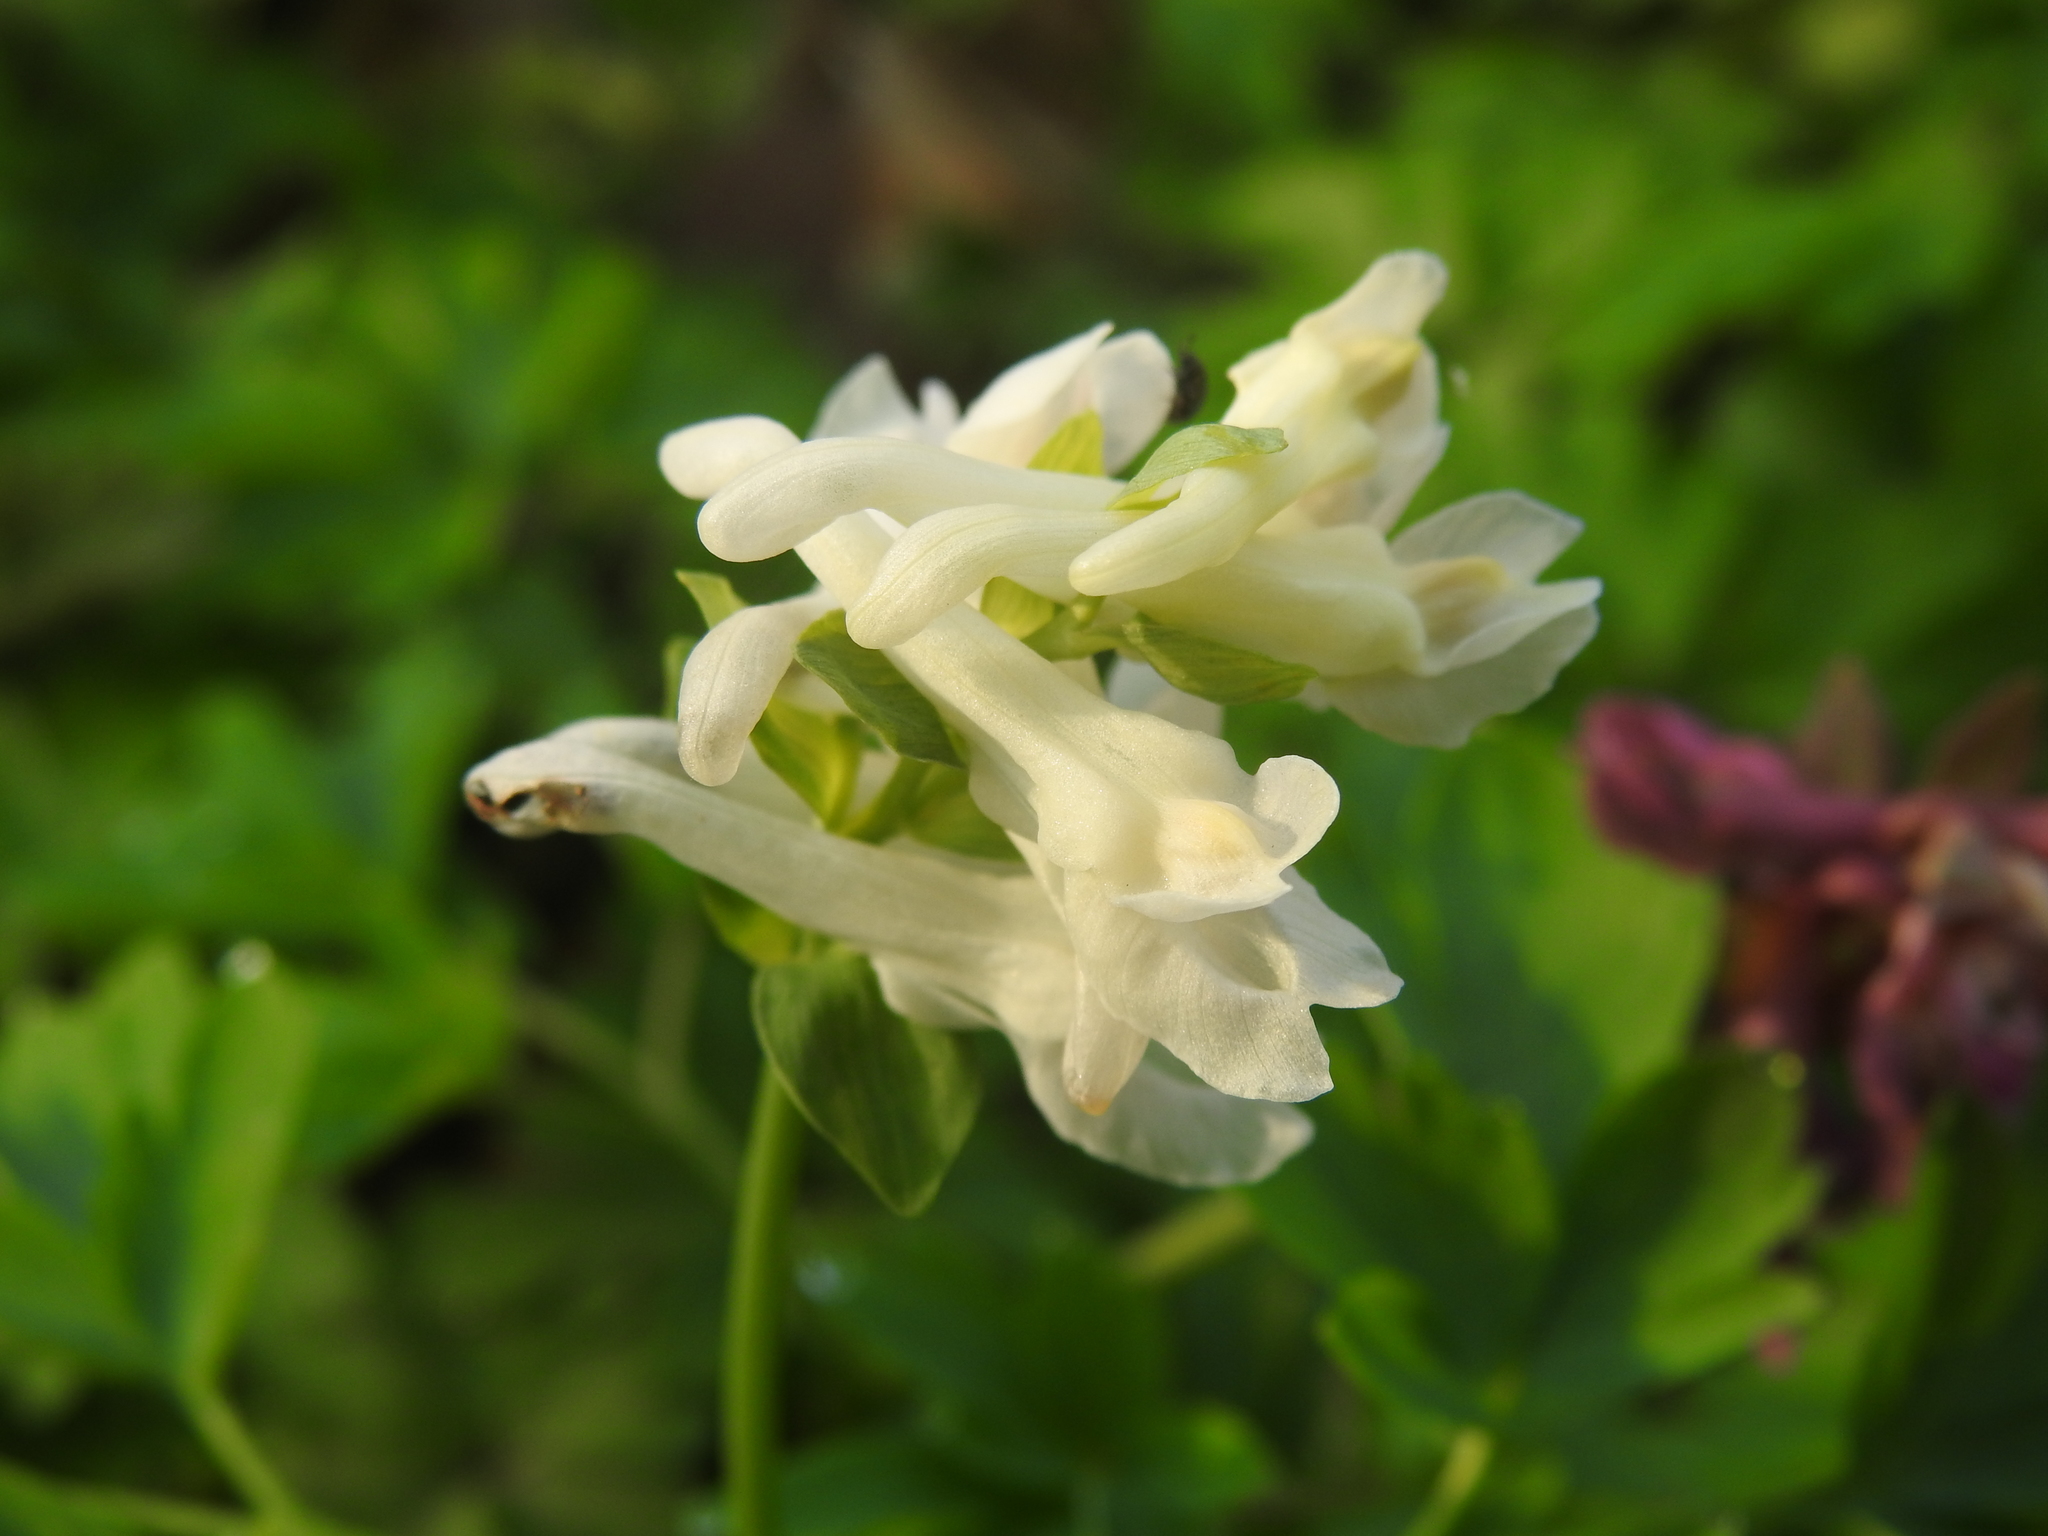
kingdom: Plantae
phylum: Tracheophyta
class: Magnoliopsida
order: Ranunculales
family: Papaveraceae
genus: Corydalis
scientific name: Corydalis cava
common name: Hollowroot
